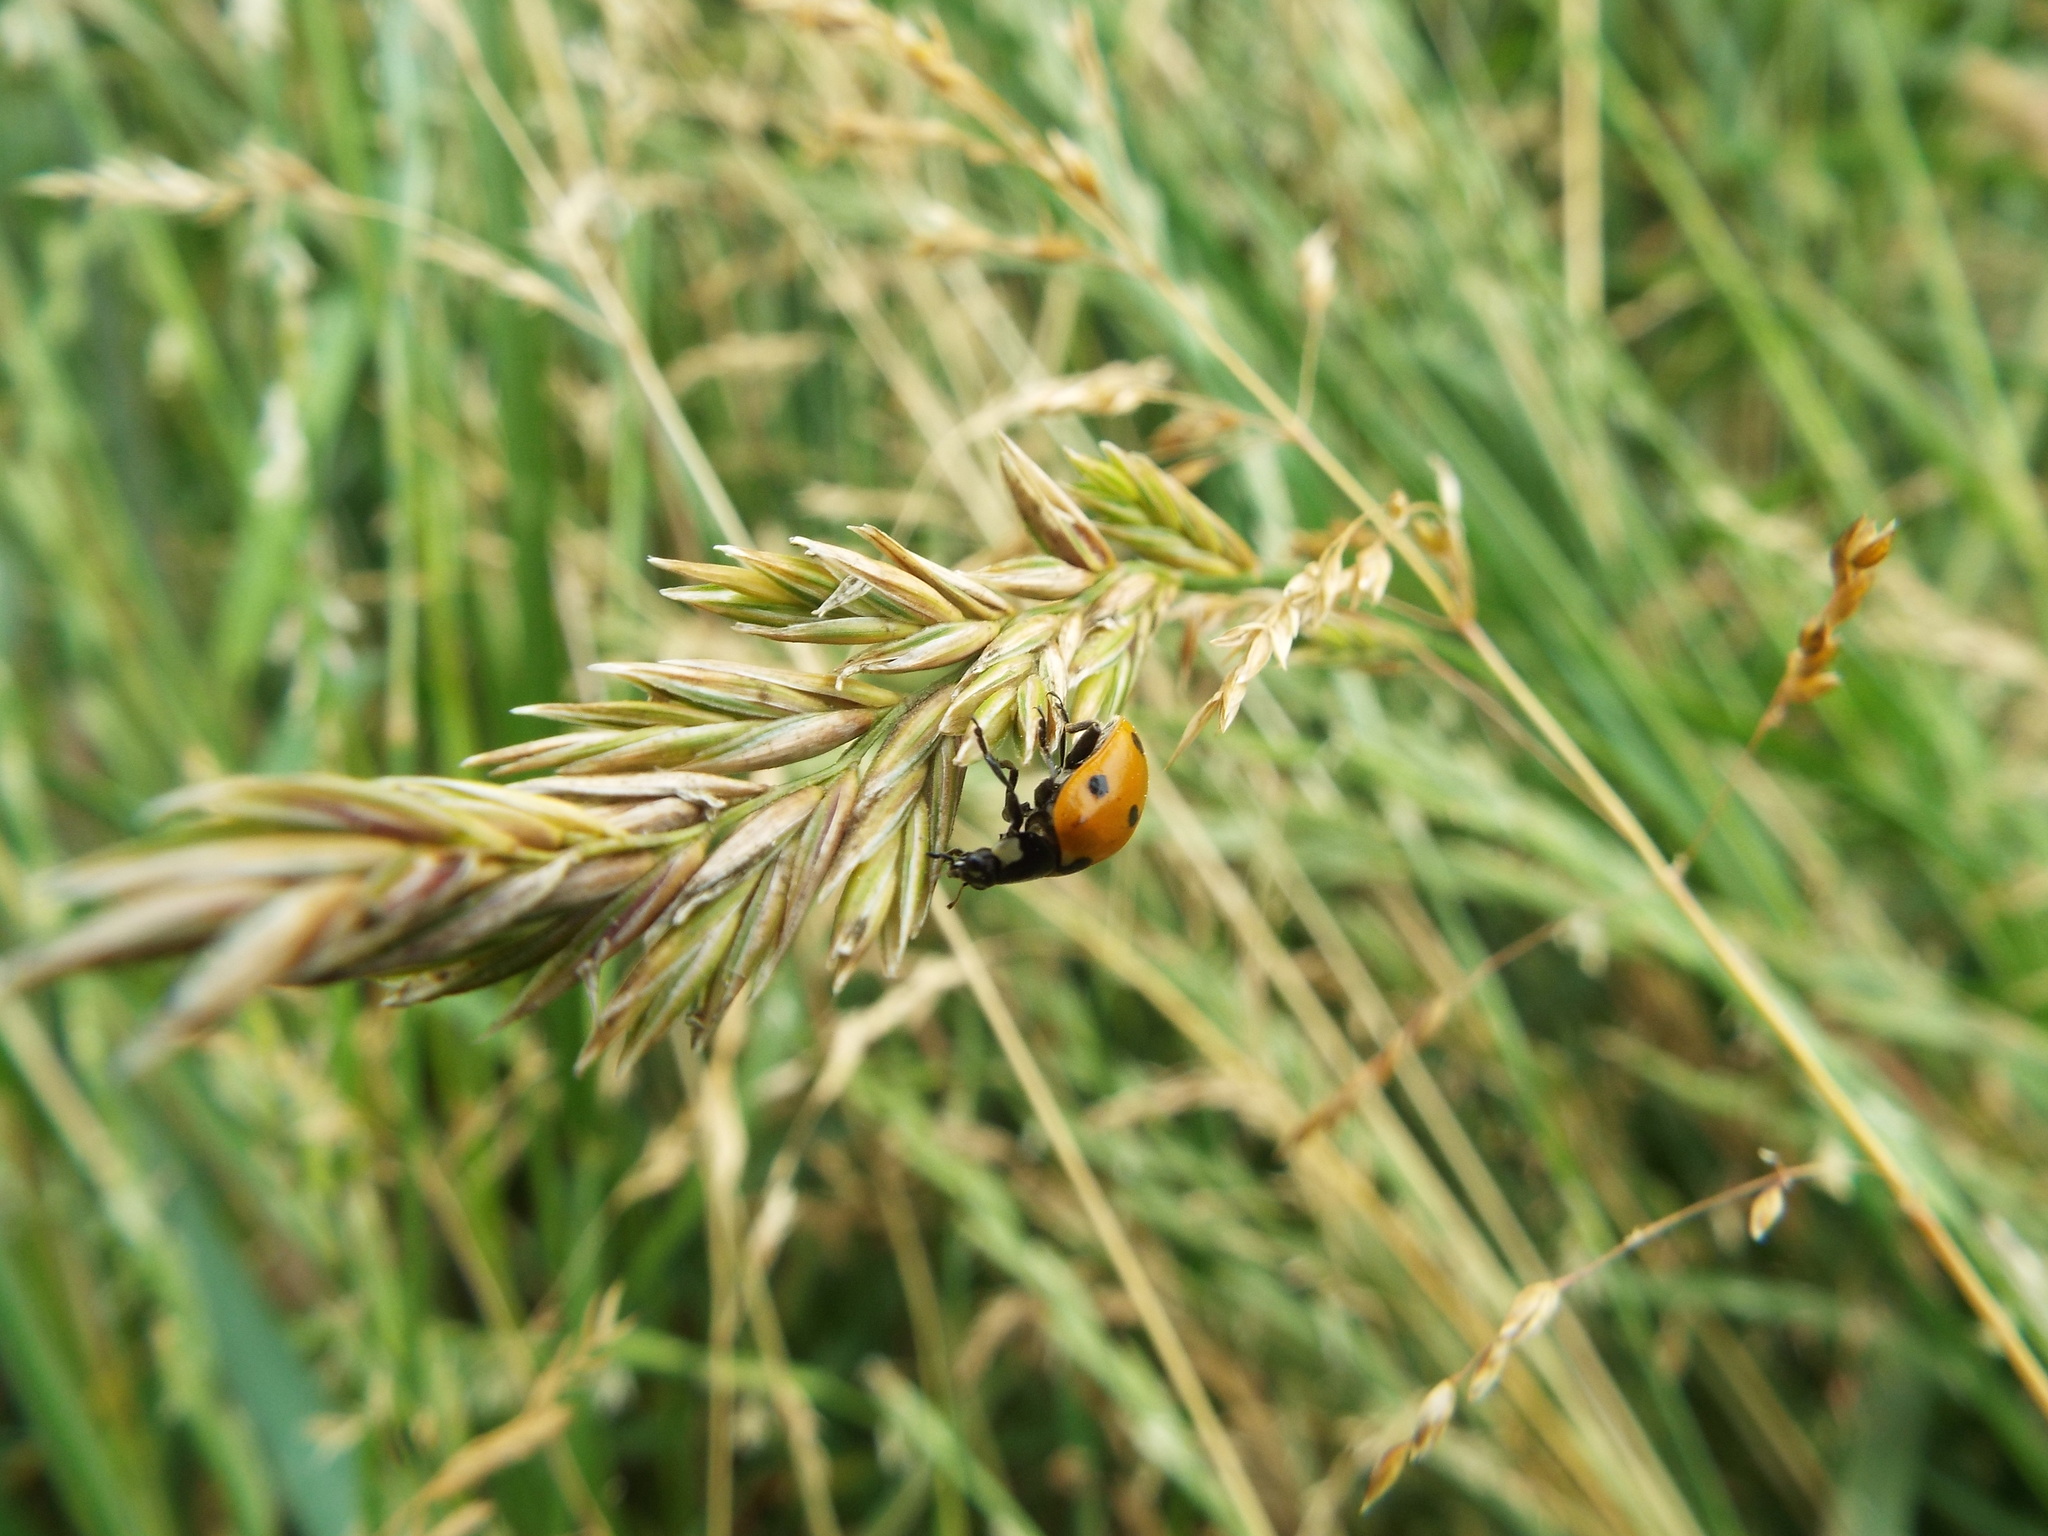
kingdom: Animalia
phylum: Arthropoda
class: Insecta
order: Coleoptera
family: Coccinellidae
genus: Coccinella
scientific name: Coccinella septempunctata
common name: Sevenspotted lady beetle
